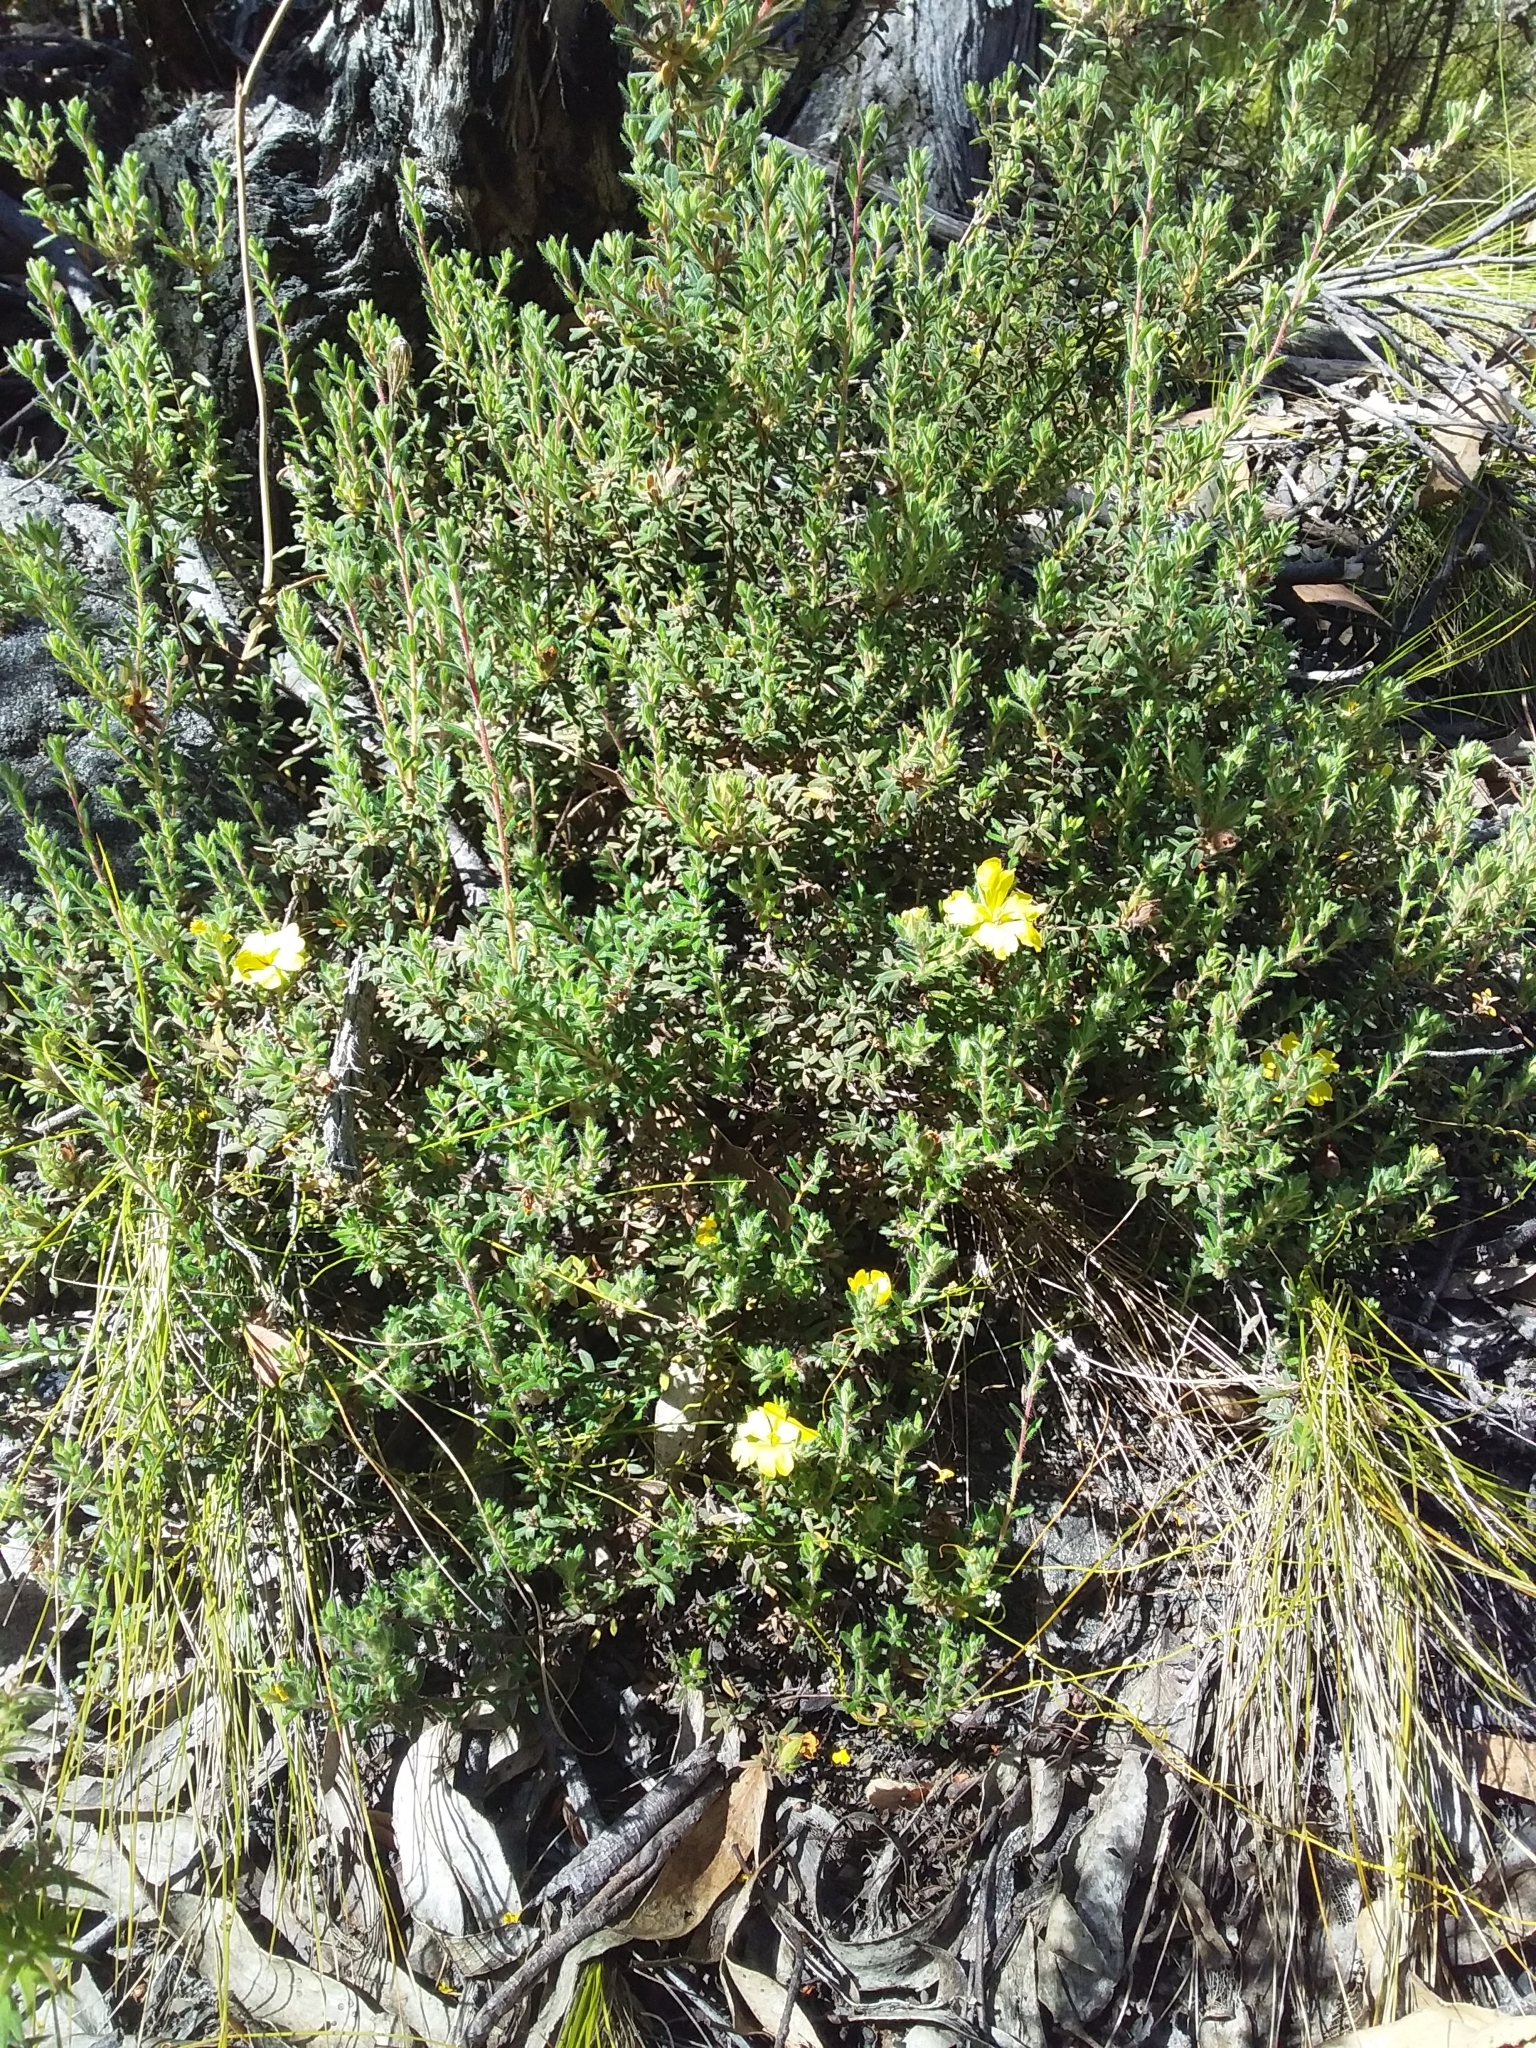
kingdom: Plantae
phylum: Tracheophyta
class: Magnoliopsida
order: Dilleniales
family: Dilleniaceae
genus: Hibbertia
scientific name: Hibbertia crinita
